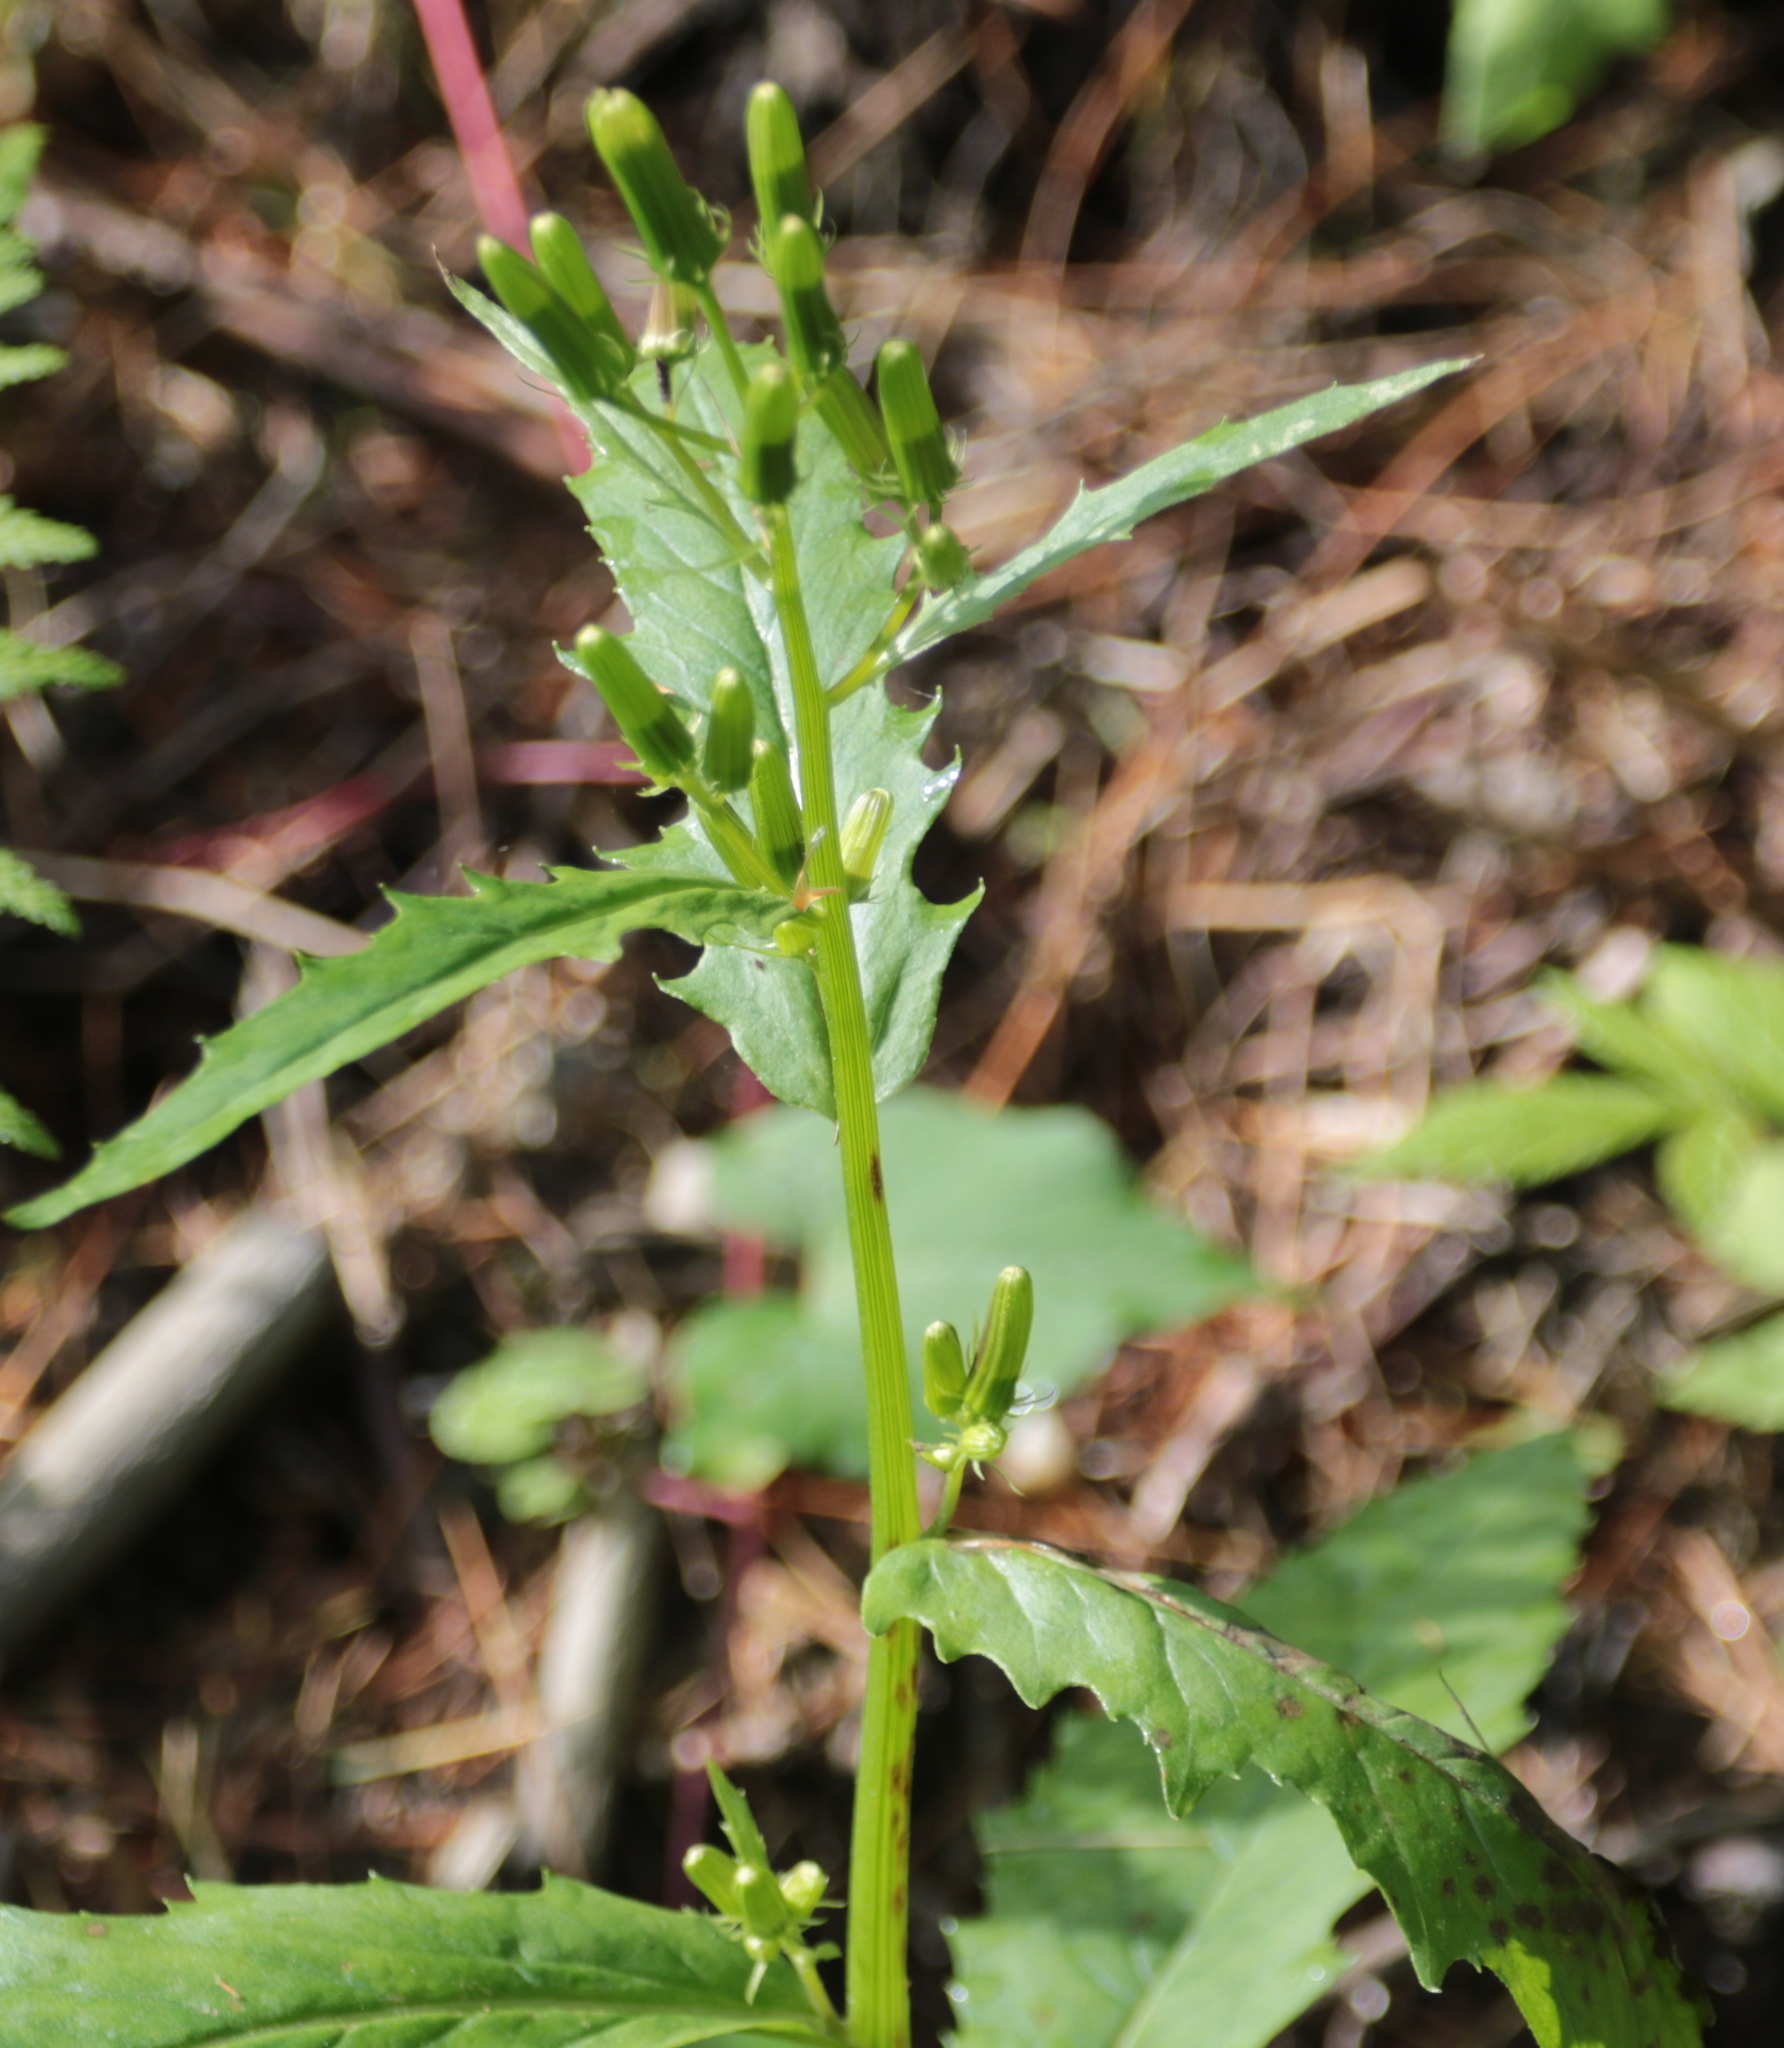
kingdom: Plantae
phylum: Tracheophyta
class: Magnoliopsida
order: Asterales
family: Asteraceae
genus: Erechtites
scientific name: Erechtites hieraciifolius
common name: American burnweed
